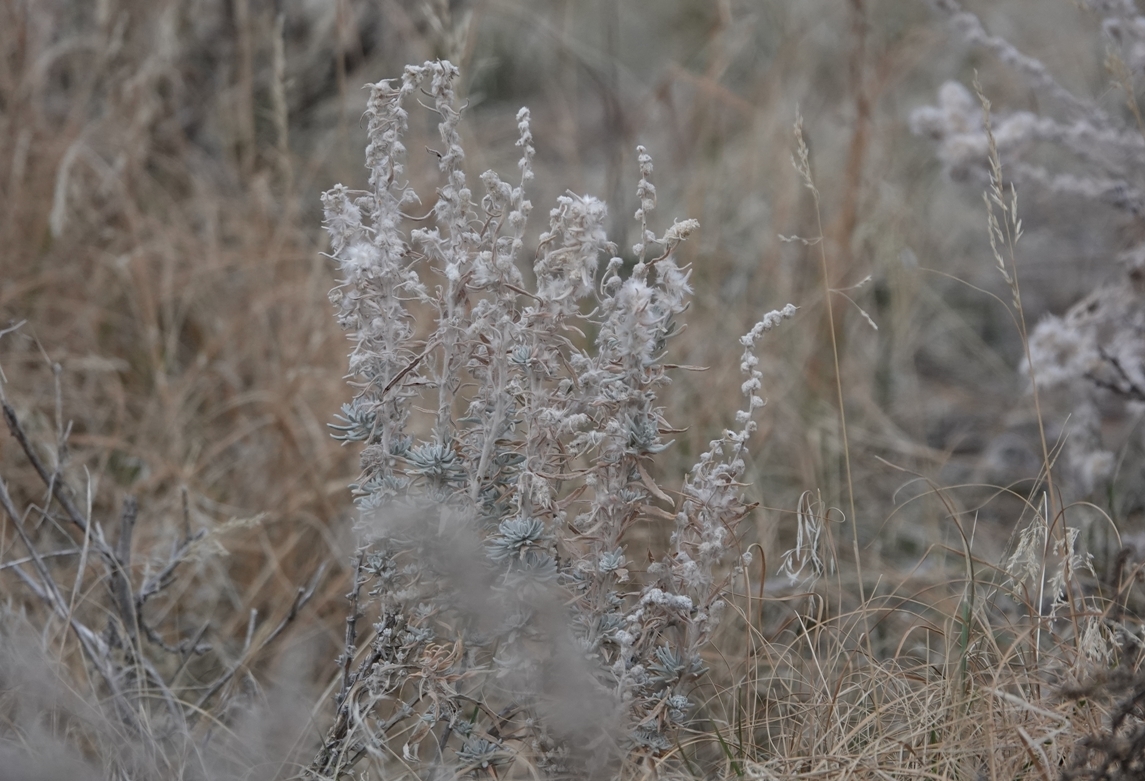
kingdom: Plantae
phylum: Tracheophyta
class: Magnoliopsida
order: Caryophyllales
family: Amaranthaceae
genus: Krascheninnikovia
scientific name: Krascheninnikovia lanata
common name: Winterfat
